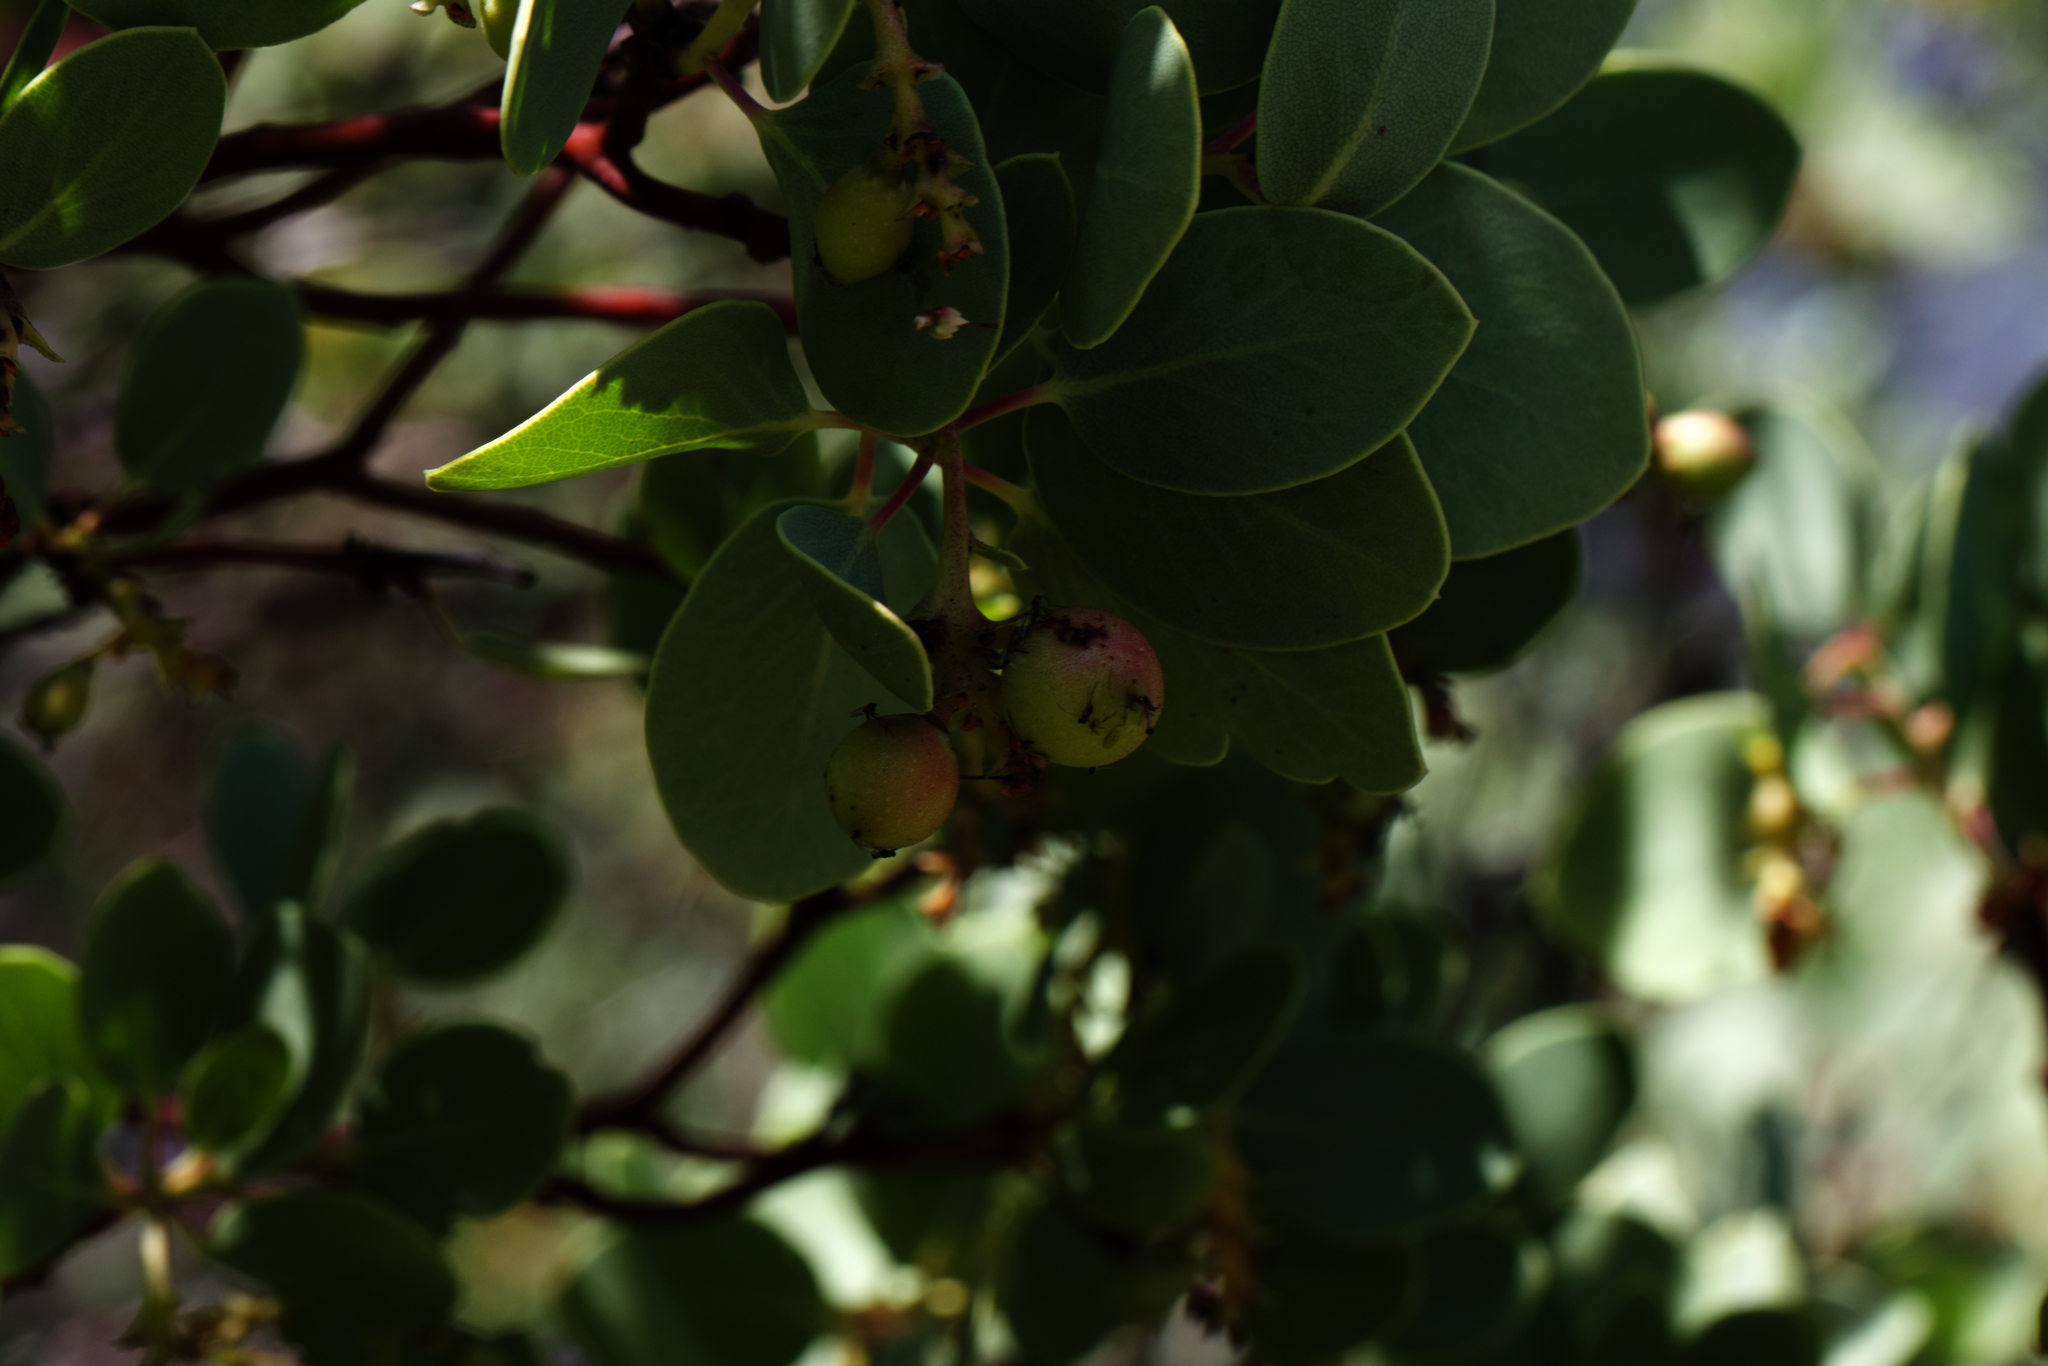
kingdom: Plantae
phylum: Tracheophyta
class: Magnoliopsida
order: Ericales
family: Ericaceae
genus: Arctostaphylos
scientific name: Arctostaphylos glauca
